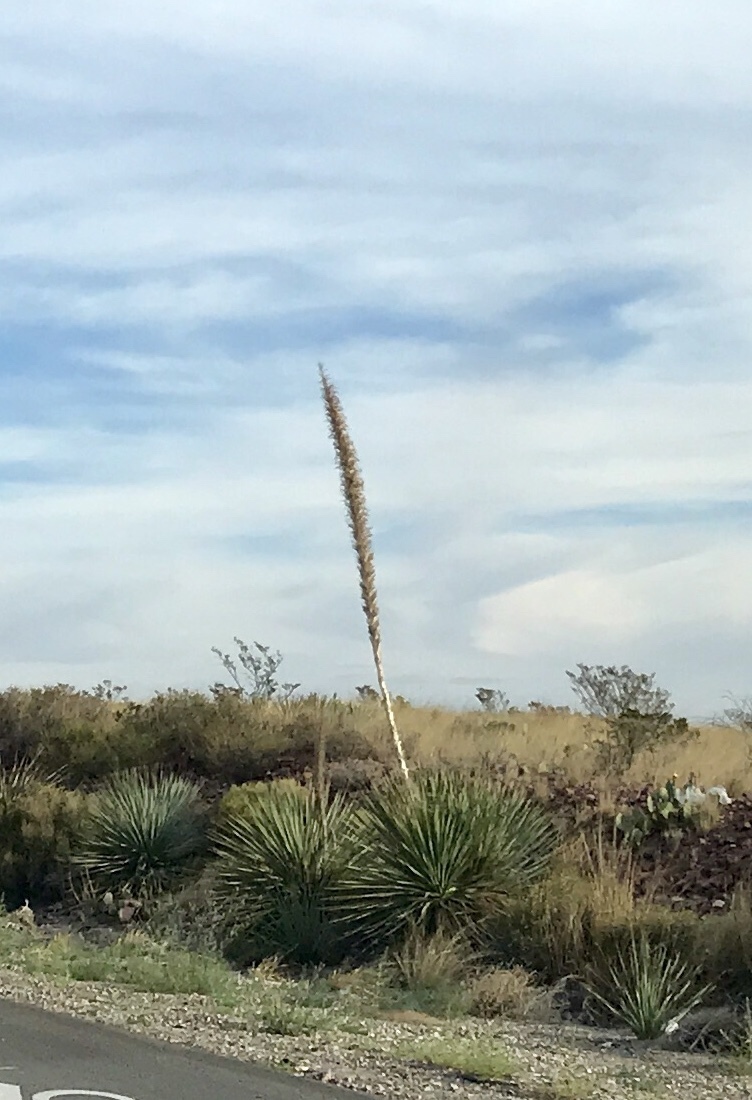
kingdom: Plantae
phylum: Tracheophyta
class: Liliopsida
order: Asparagales
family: Asparagaceae
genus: Dasylirion
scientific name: Dasylirion wheeleri
